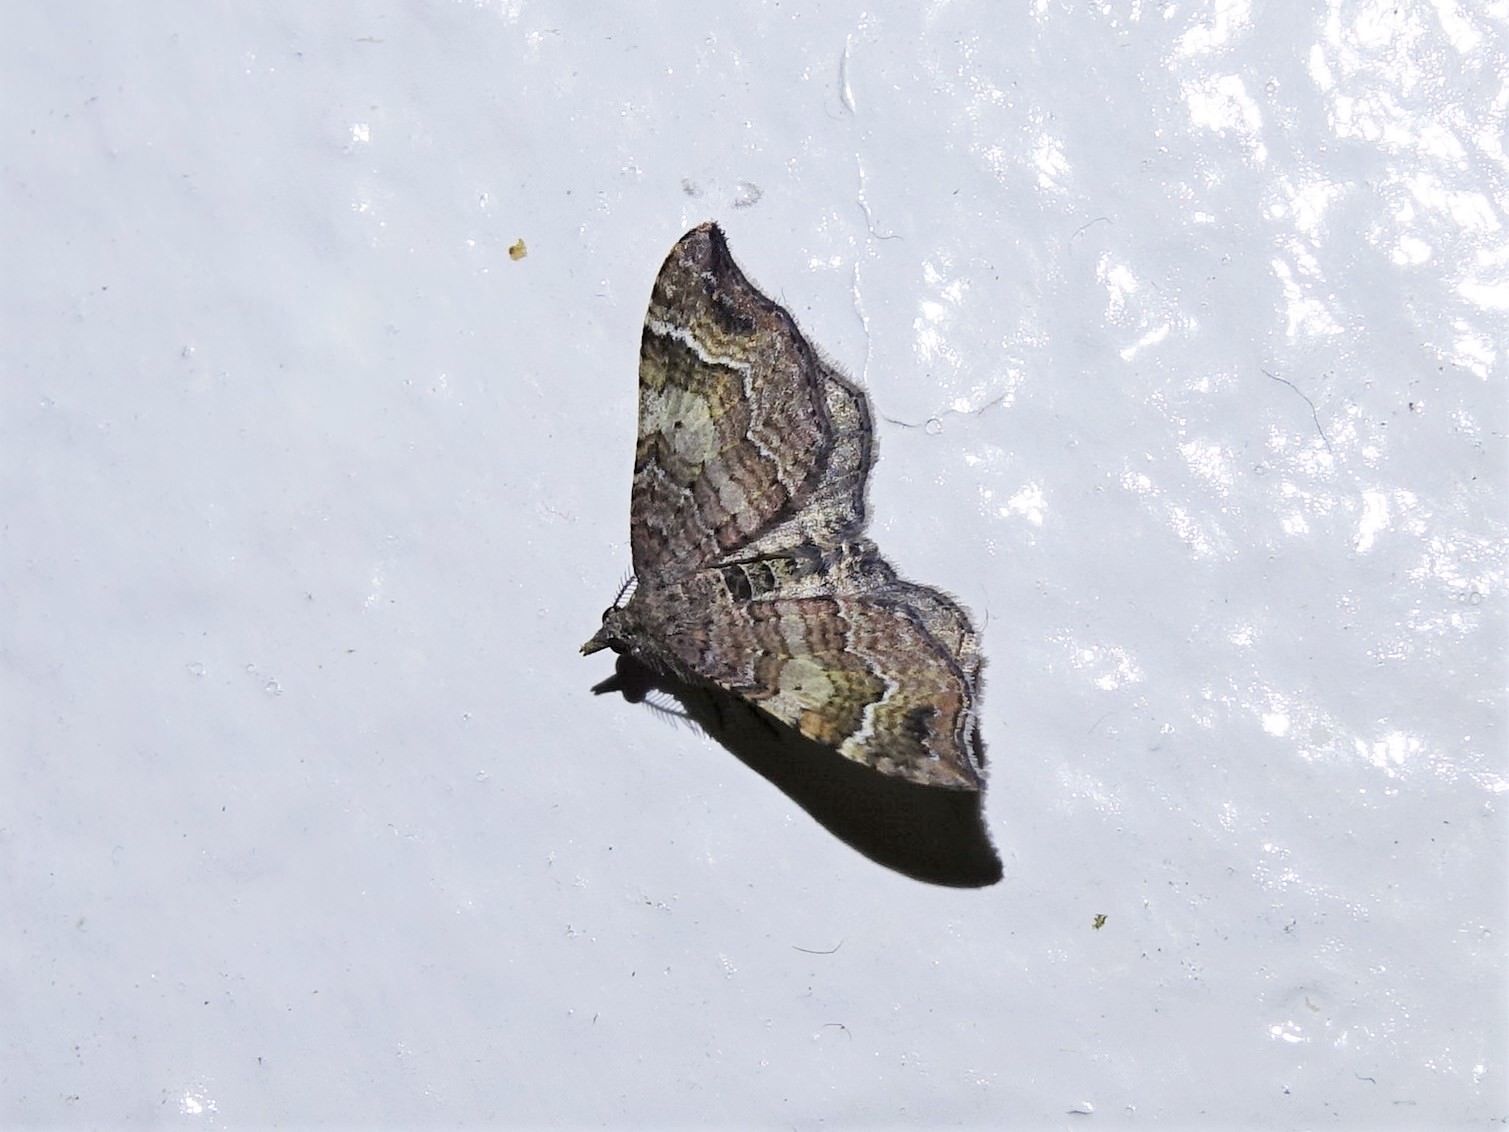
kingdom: Animalia
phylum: Arthropoda
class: Insecta
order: Lepidoptera
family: Geometridae
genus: Homodotis
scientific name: Homodotis megaspilata
